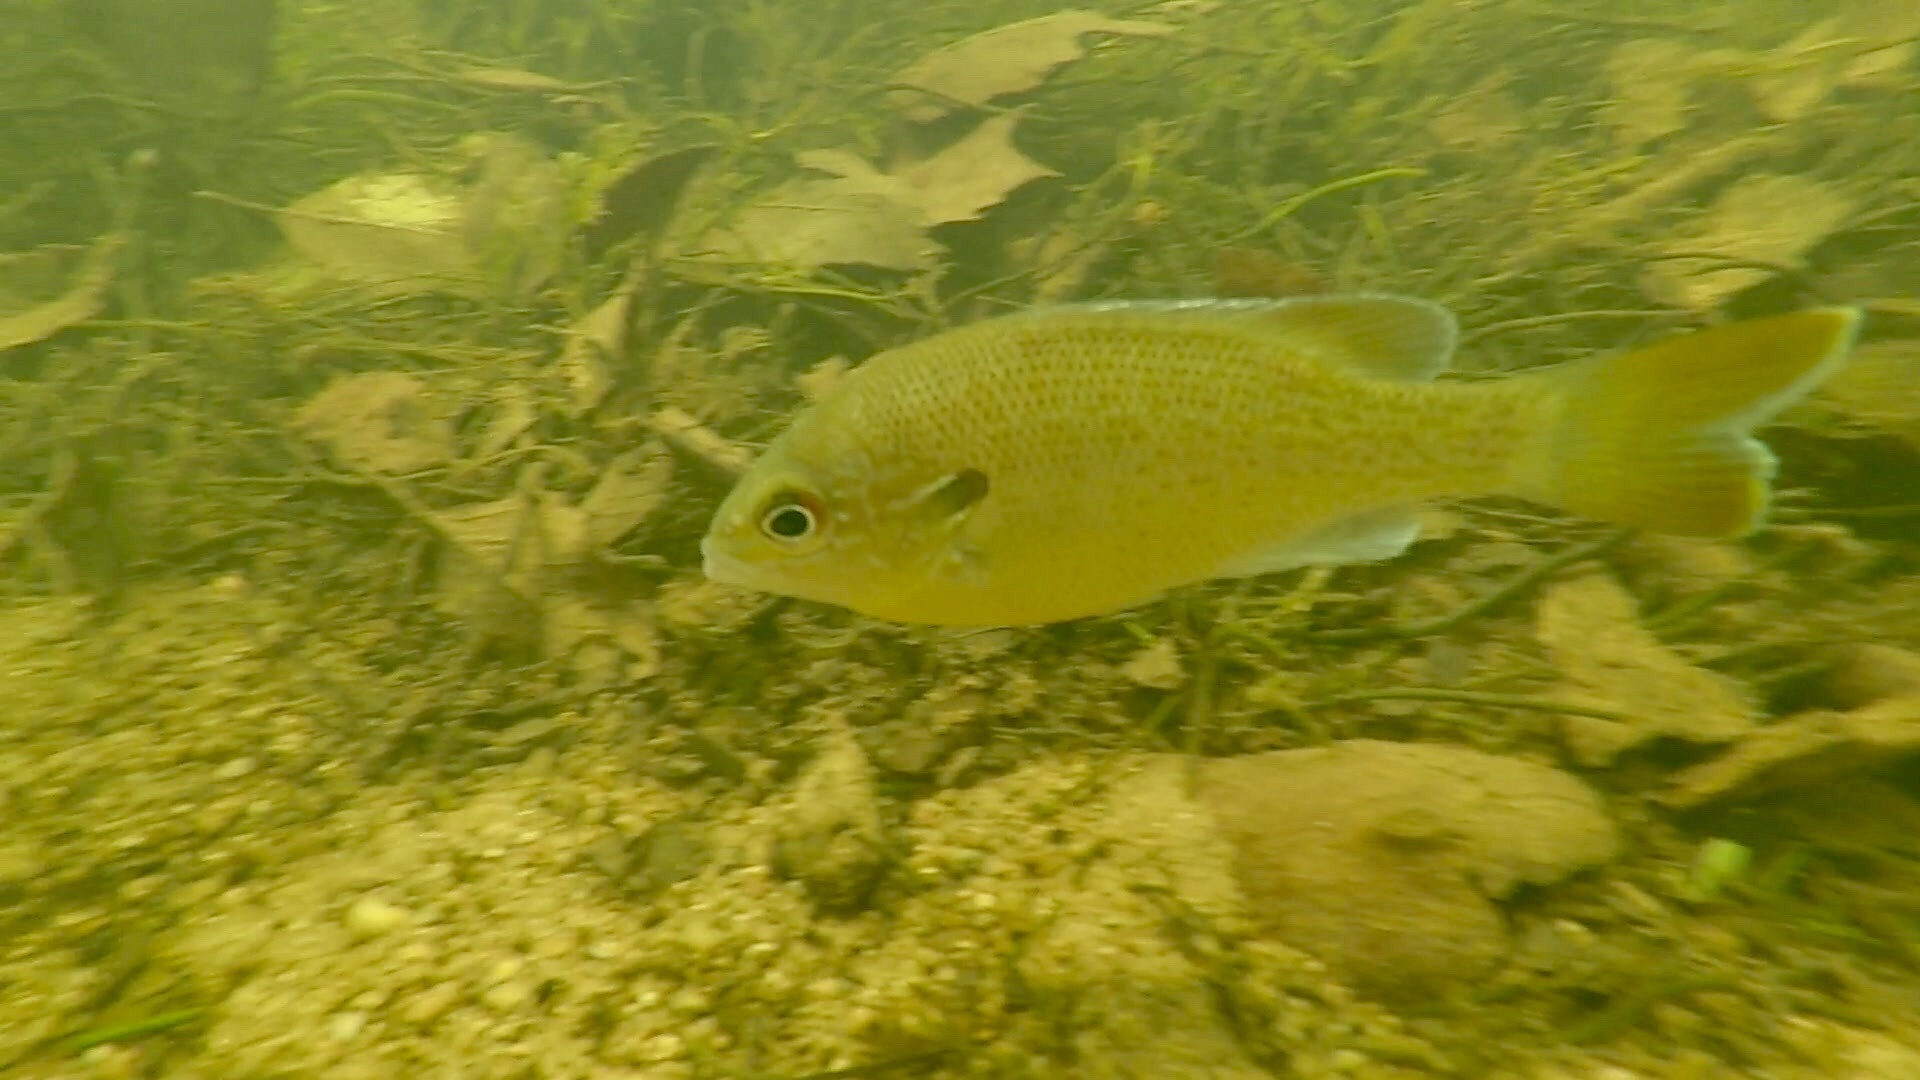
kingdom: Animalia
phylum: Chordata
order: Perciformes
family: Centrarchidae
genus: Lepomis
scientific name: Lepomis auritus
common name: Redbreast sunfish
